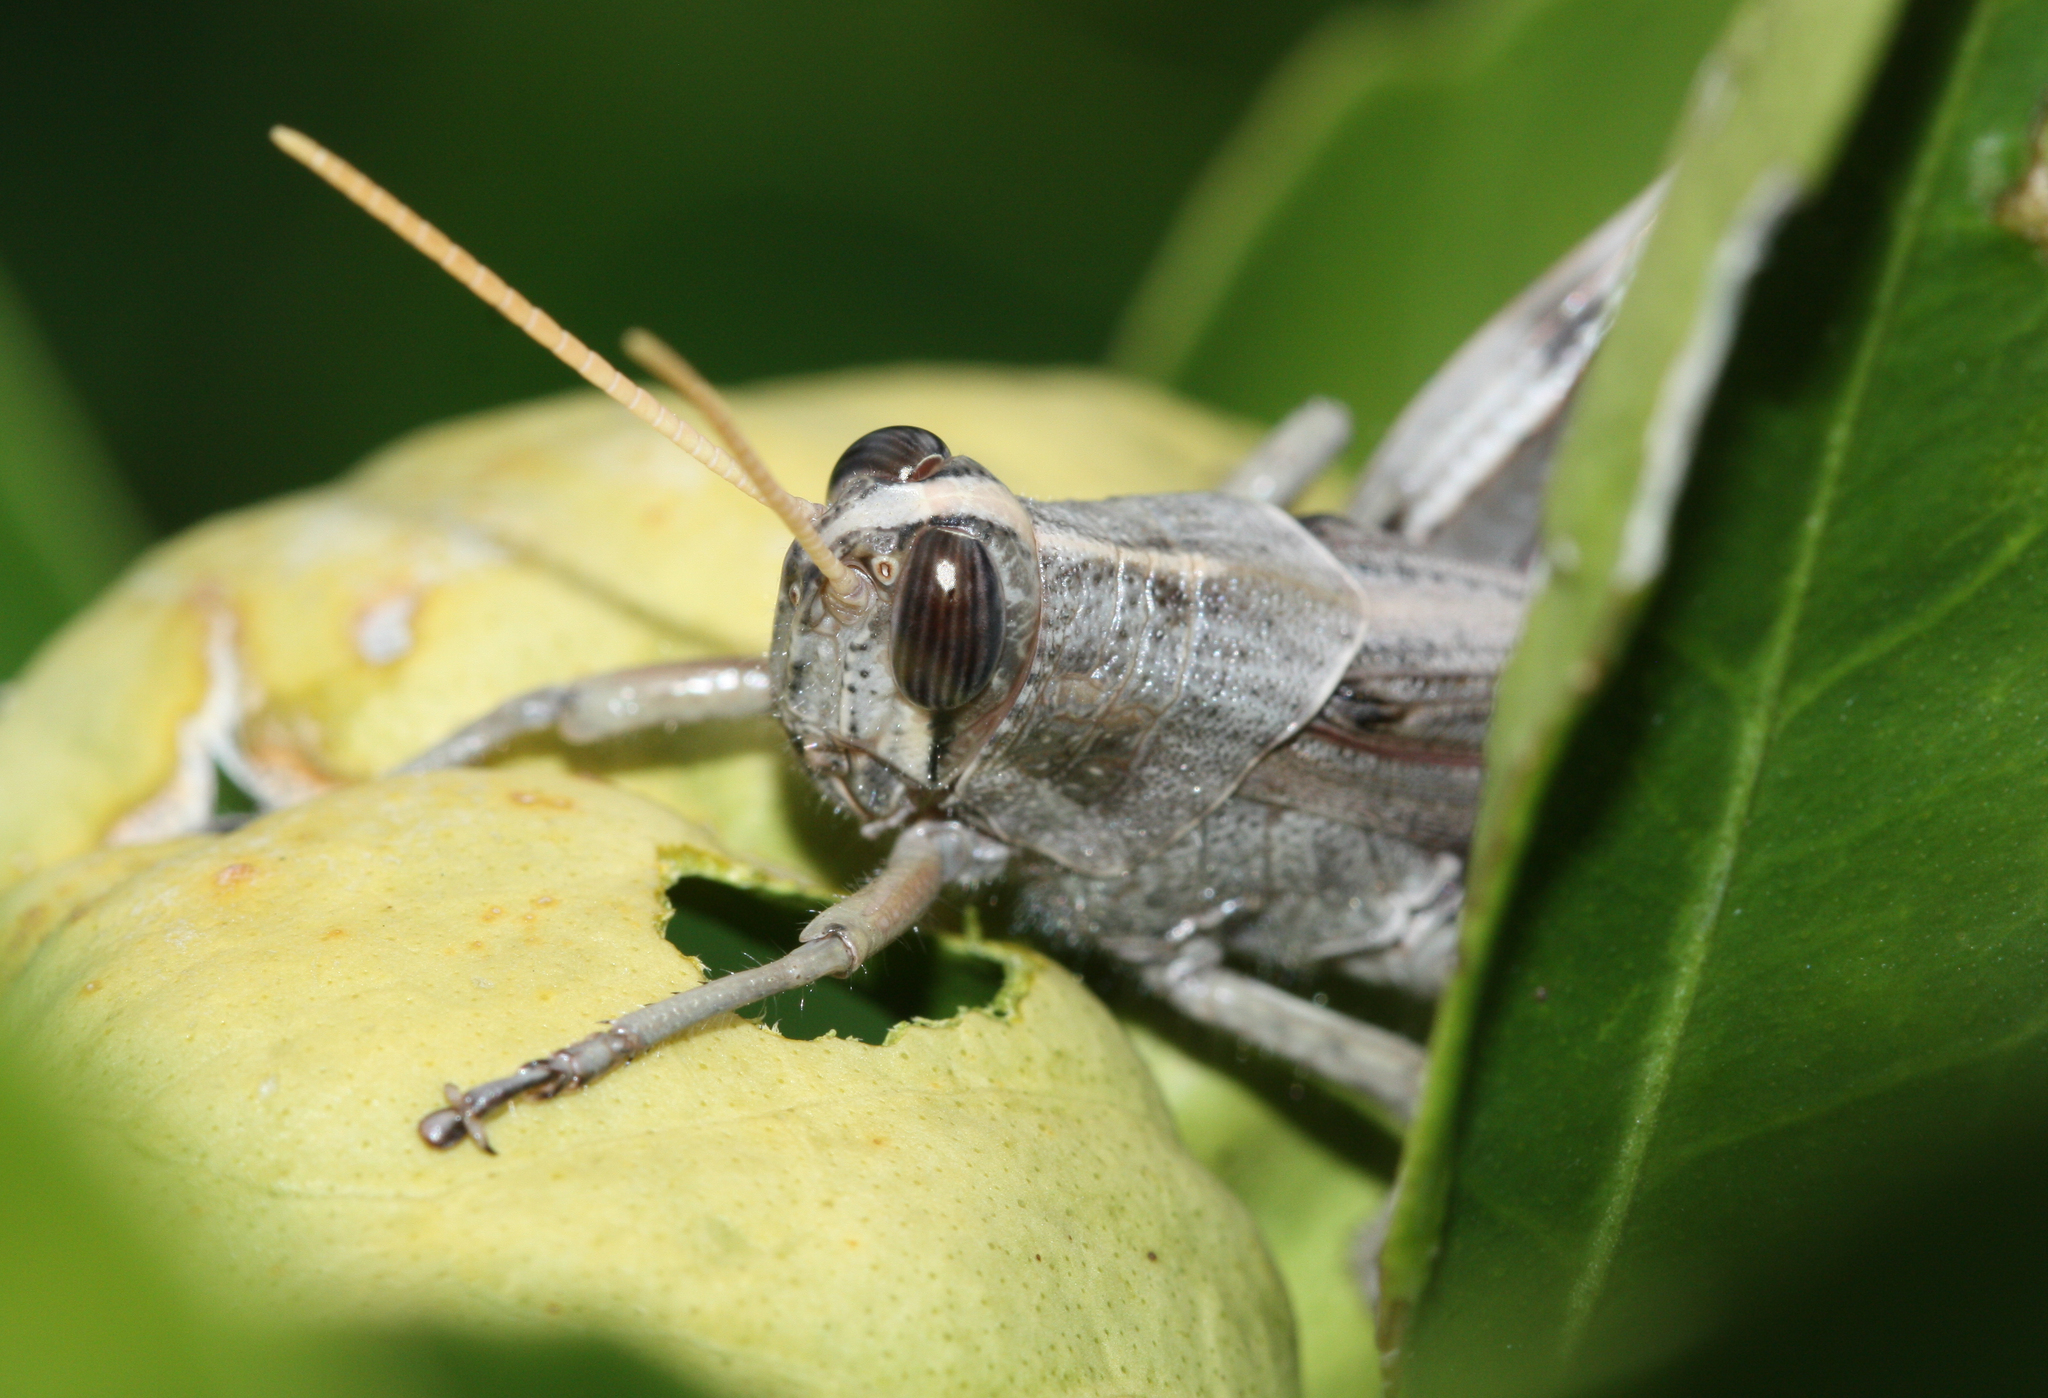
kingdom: Animalia
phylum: Arthropoda
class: Insecta
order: Orthoptera
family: Acrididae
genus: Schistocerca
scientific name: Schistocerca nitens
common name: Vagrant grasshopper
